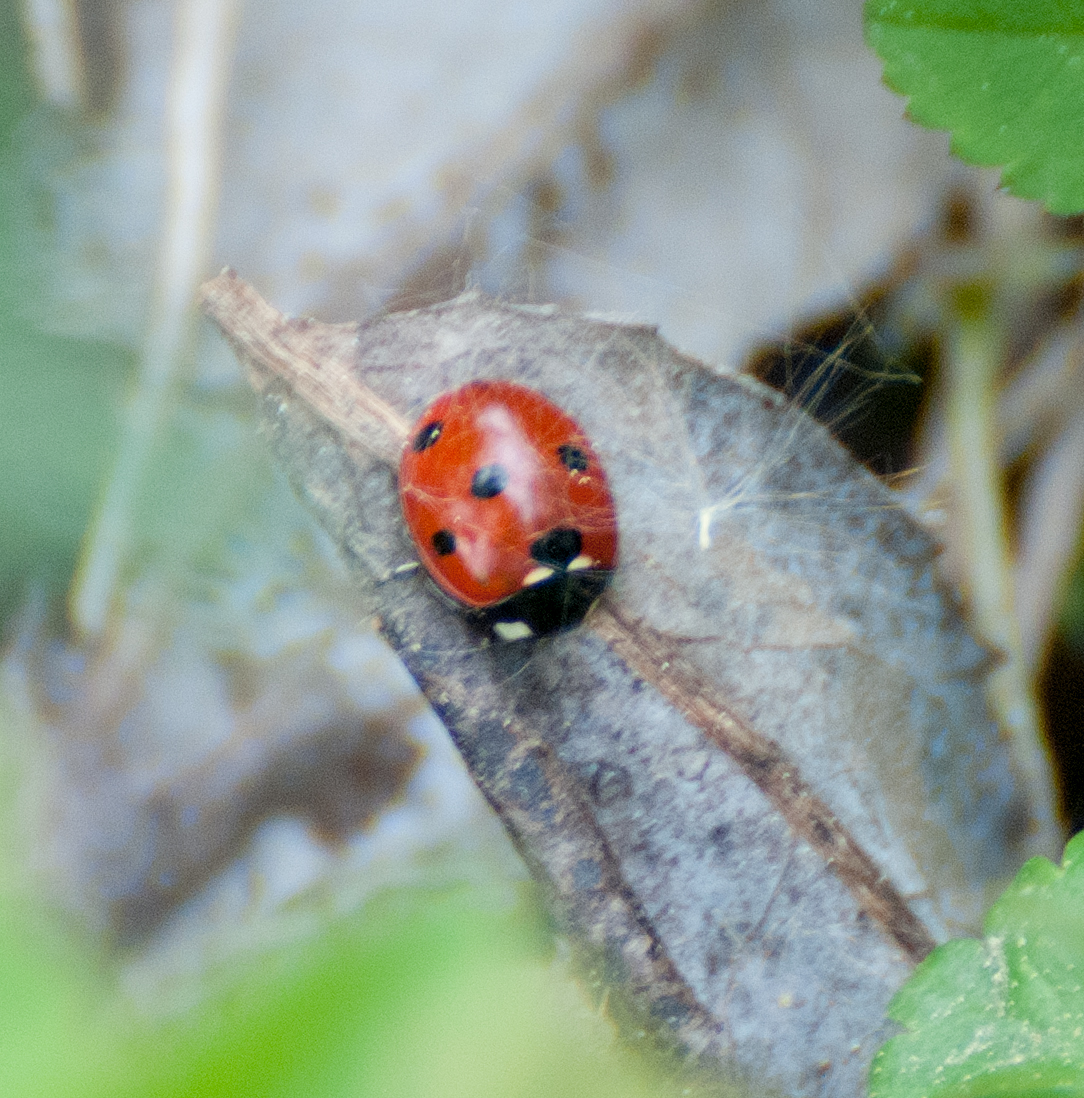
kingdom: Animalia
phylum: Arthropoda
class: Insecta
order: Coleoptera
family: Coccinellidae
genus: Coccinella
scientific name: Coccinella septempunctata
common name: Sevenspotted lady beetle
